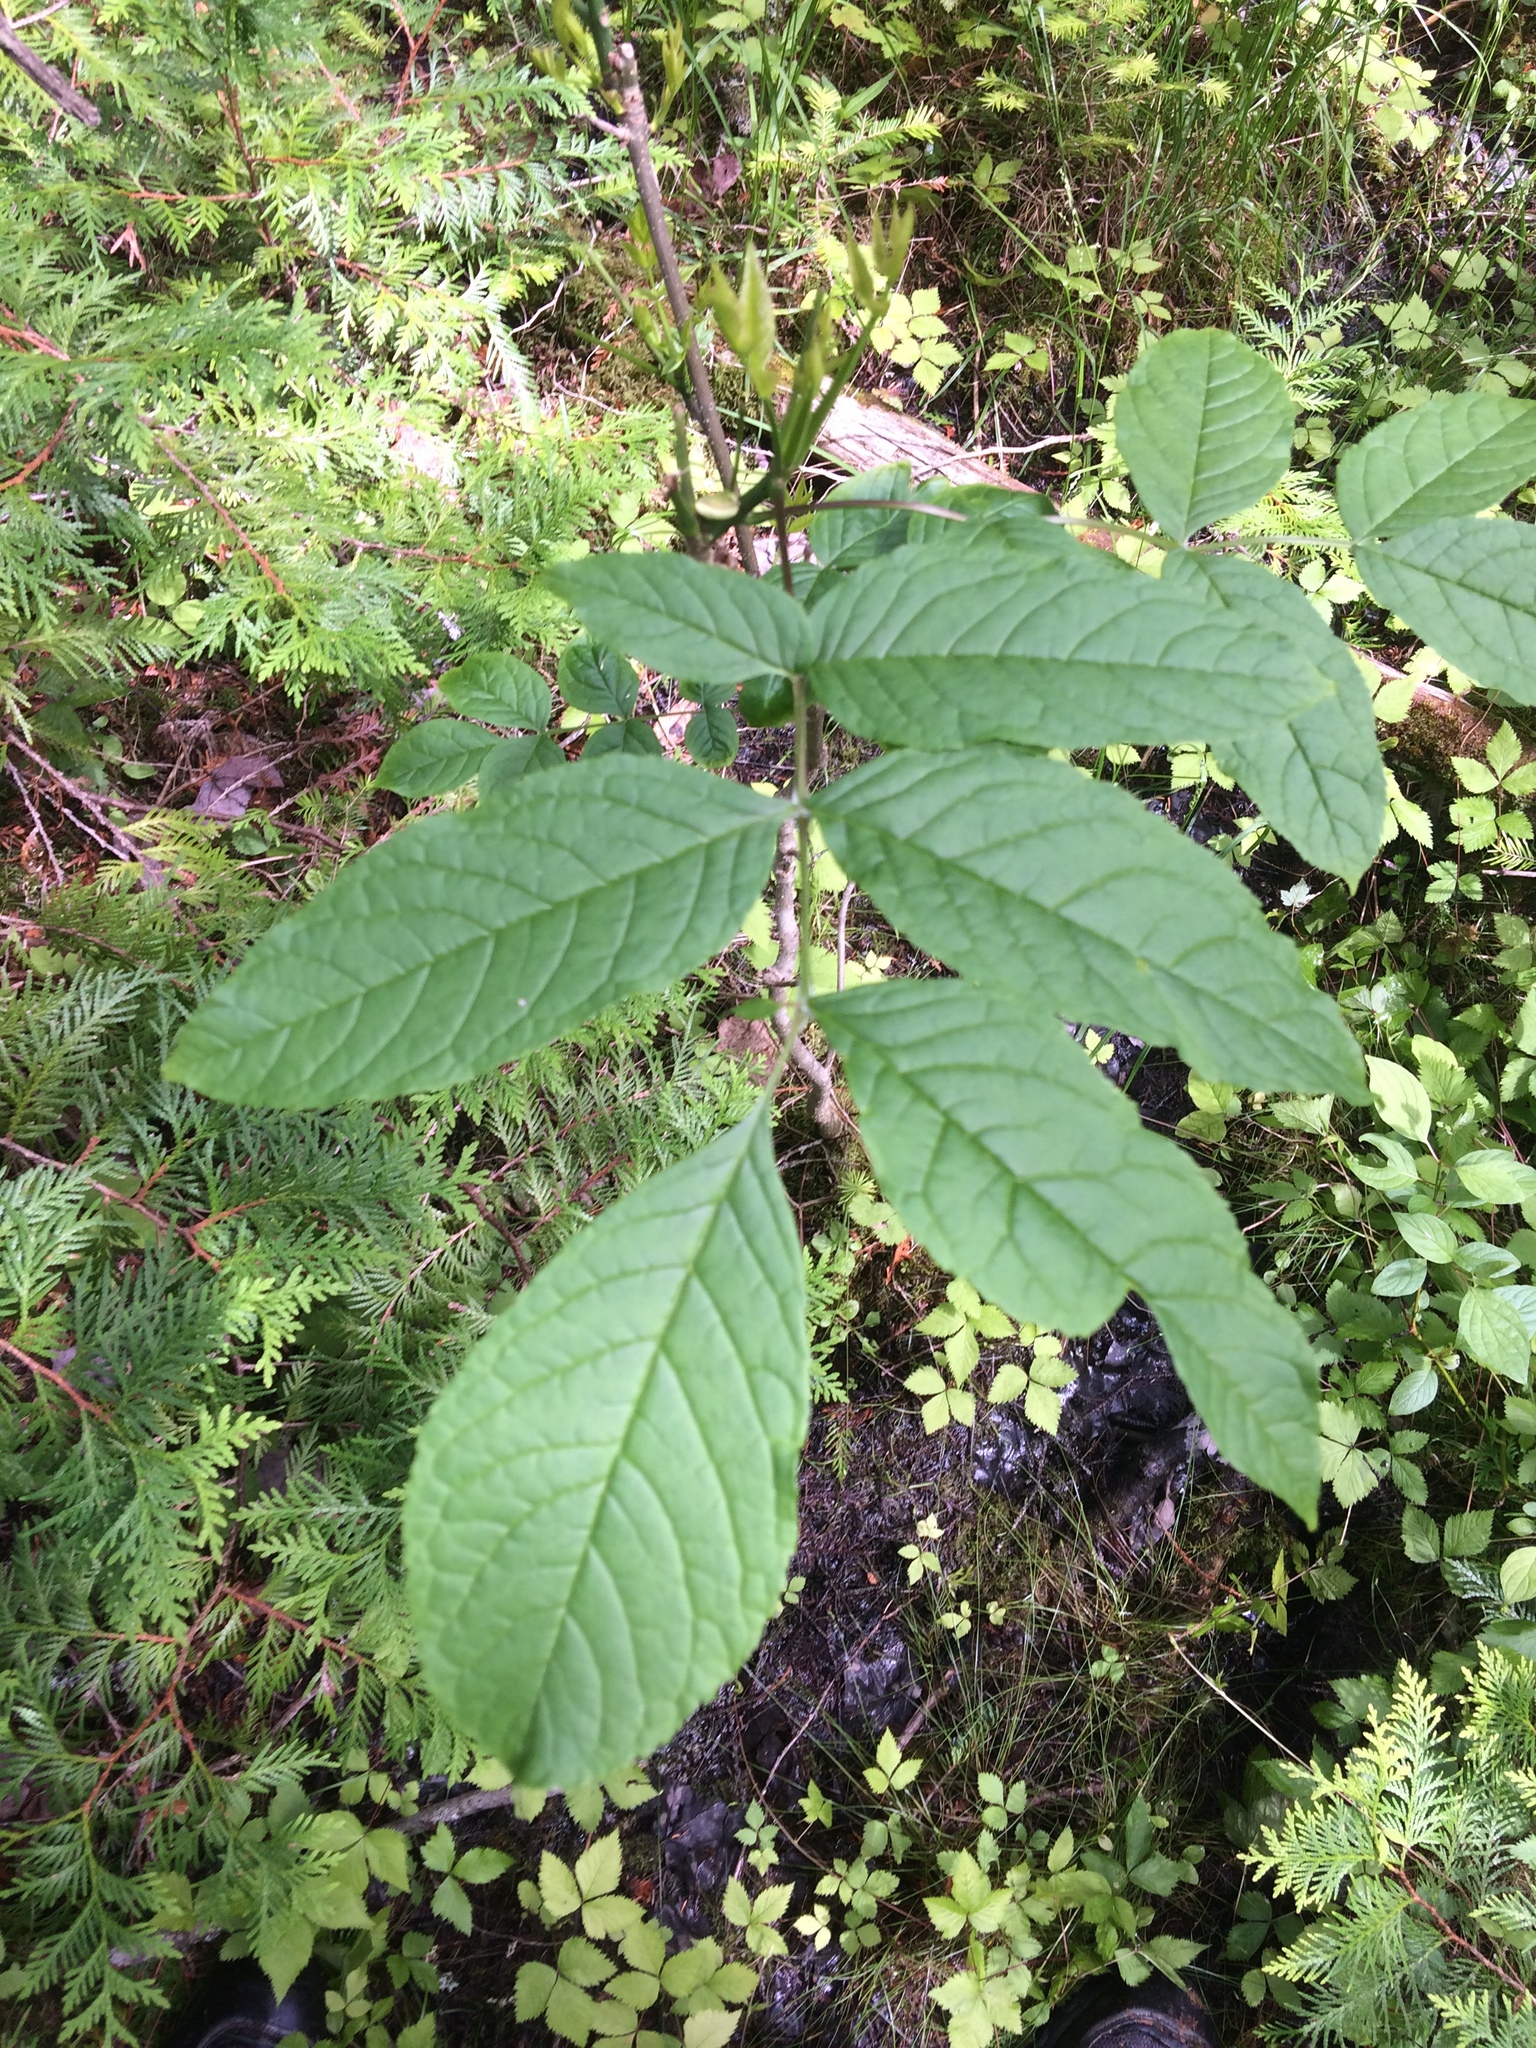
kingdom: Plantae
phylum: Tracheophyta
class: Magnoliopsida
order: Lamiales
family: Oleaceae
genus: Fraxinus
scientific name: Fraxinus nigra
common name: Black ash
